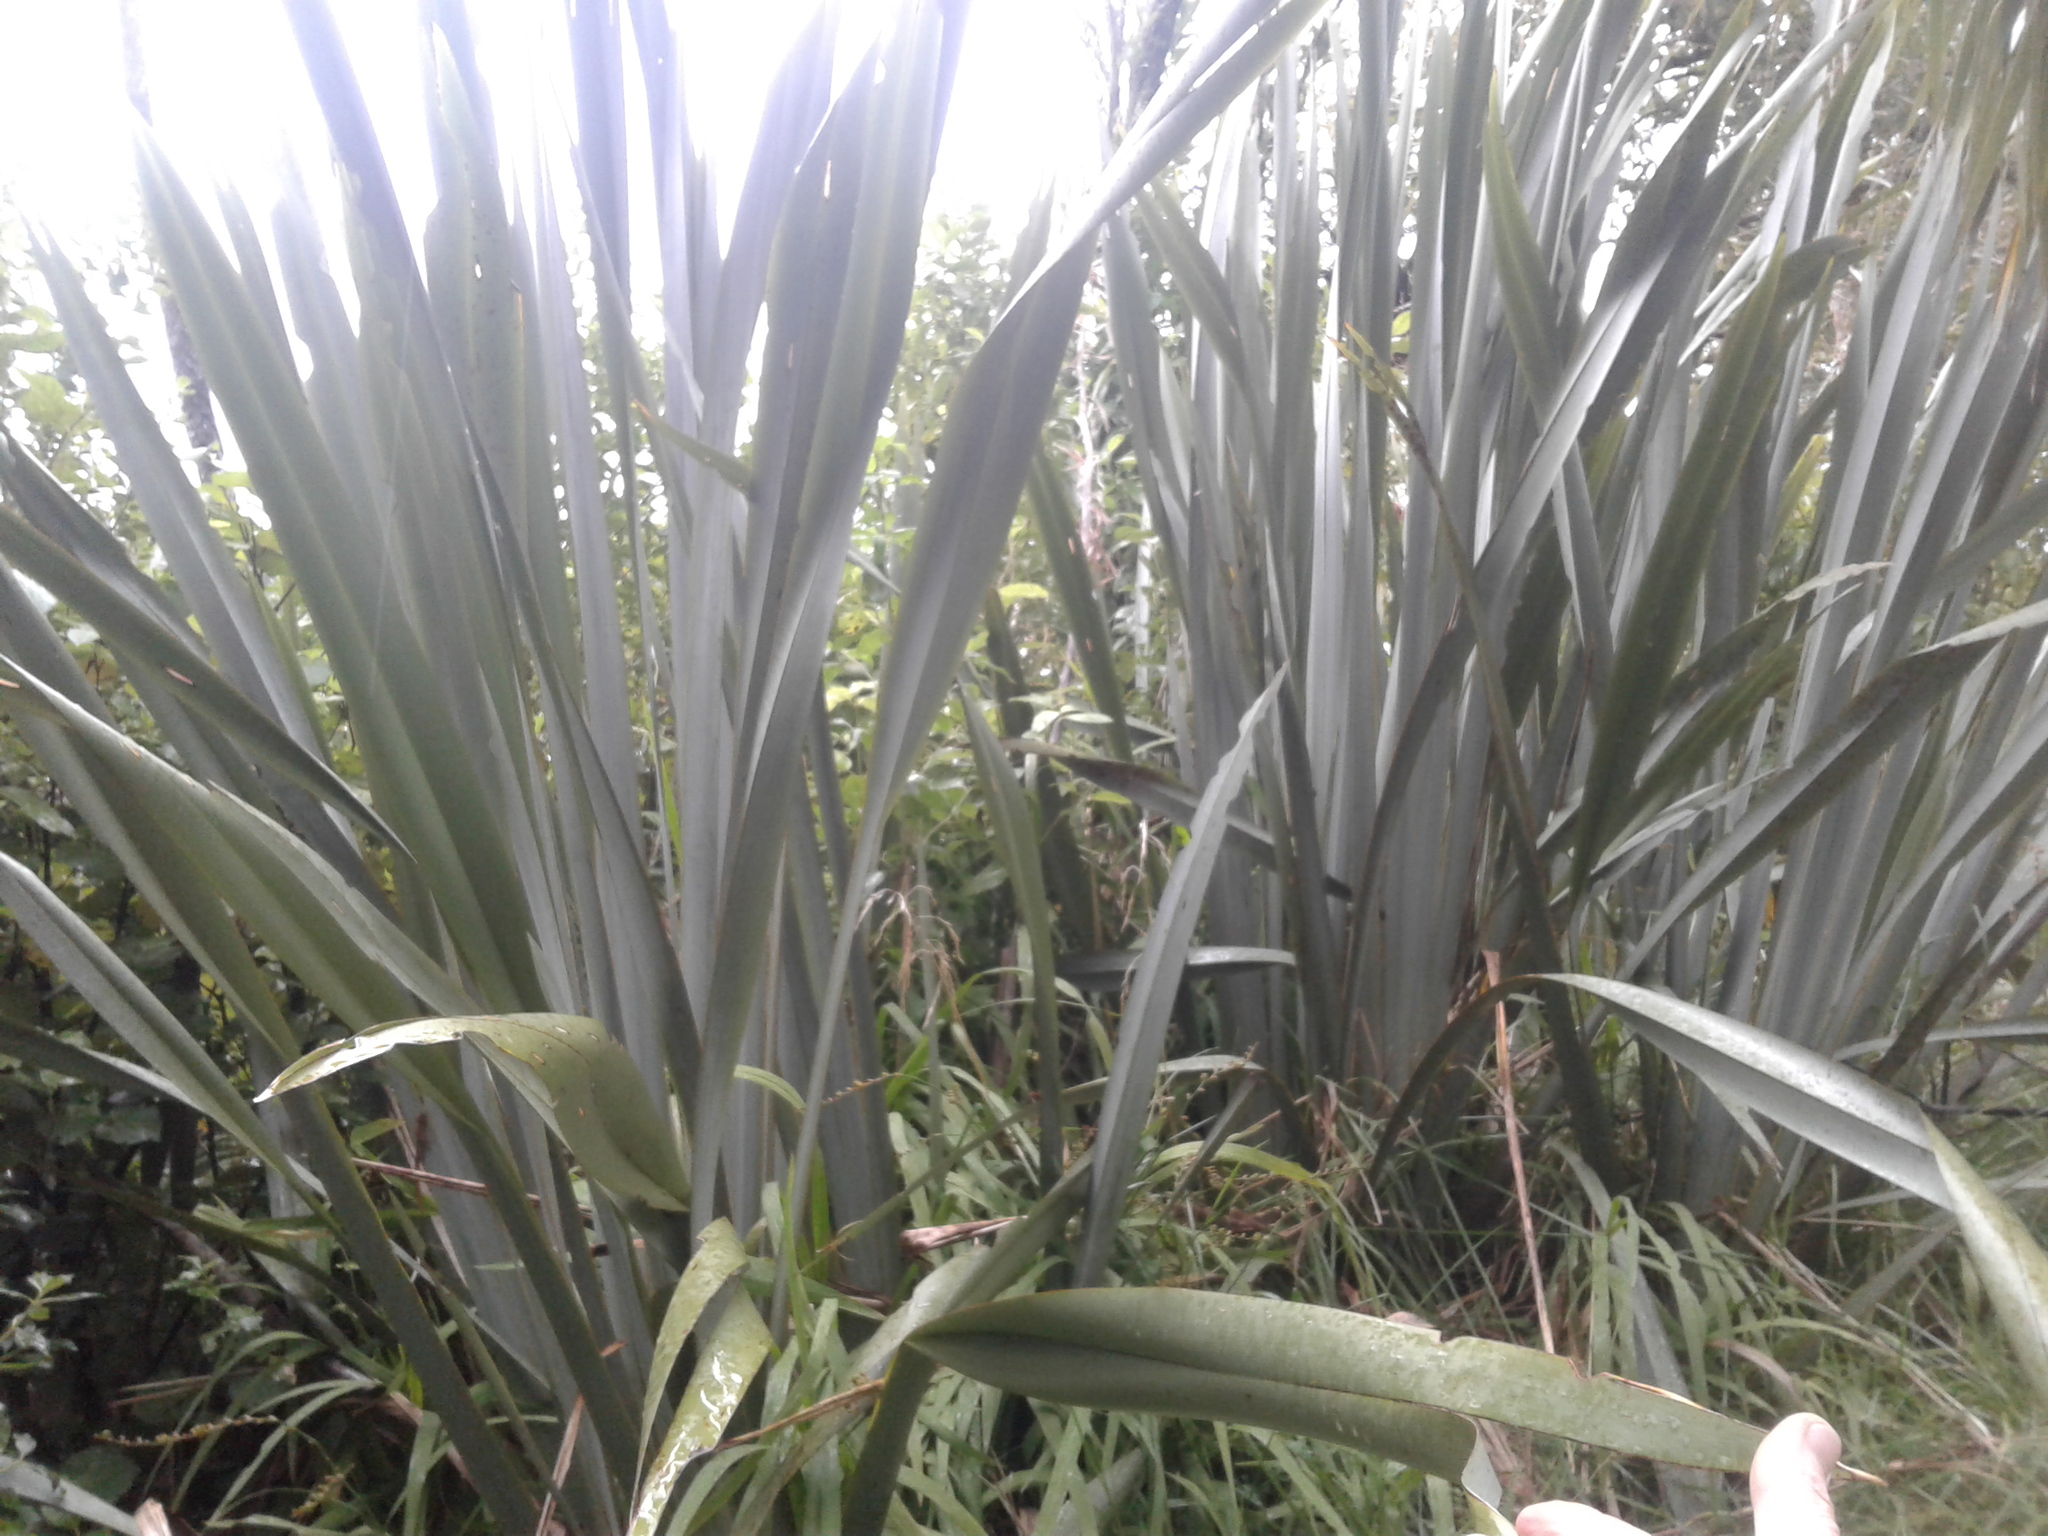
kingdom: Plantae
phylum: Tracheophyta
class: Liliopsida
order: Asparagales
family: Asphodelaceae
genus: Phormium
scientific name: Phormium tenax
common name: New zealand flax
